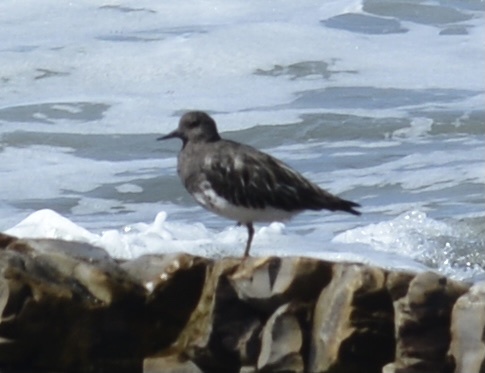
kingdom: Animalia
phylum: Chordata
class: Aves
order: Charadriiformes
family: Scolopacidae
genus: Arenaria
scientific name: Arenaria melanocephala
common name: Black turnstone
